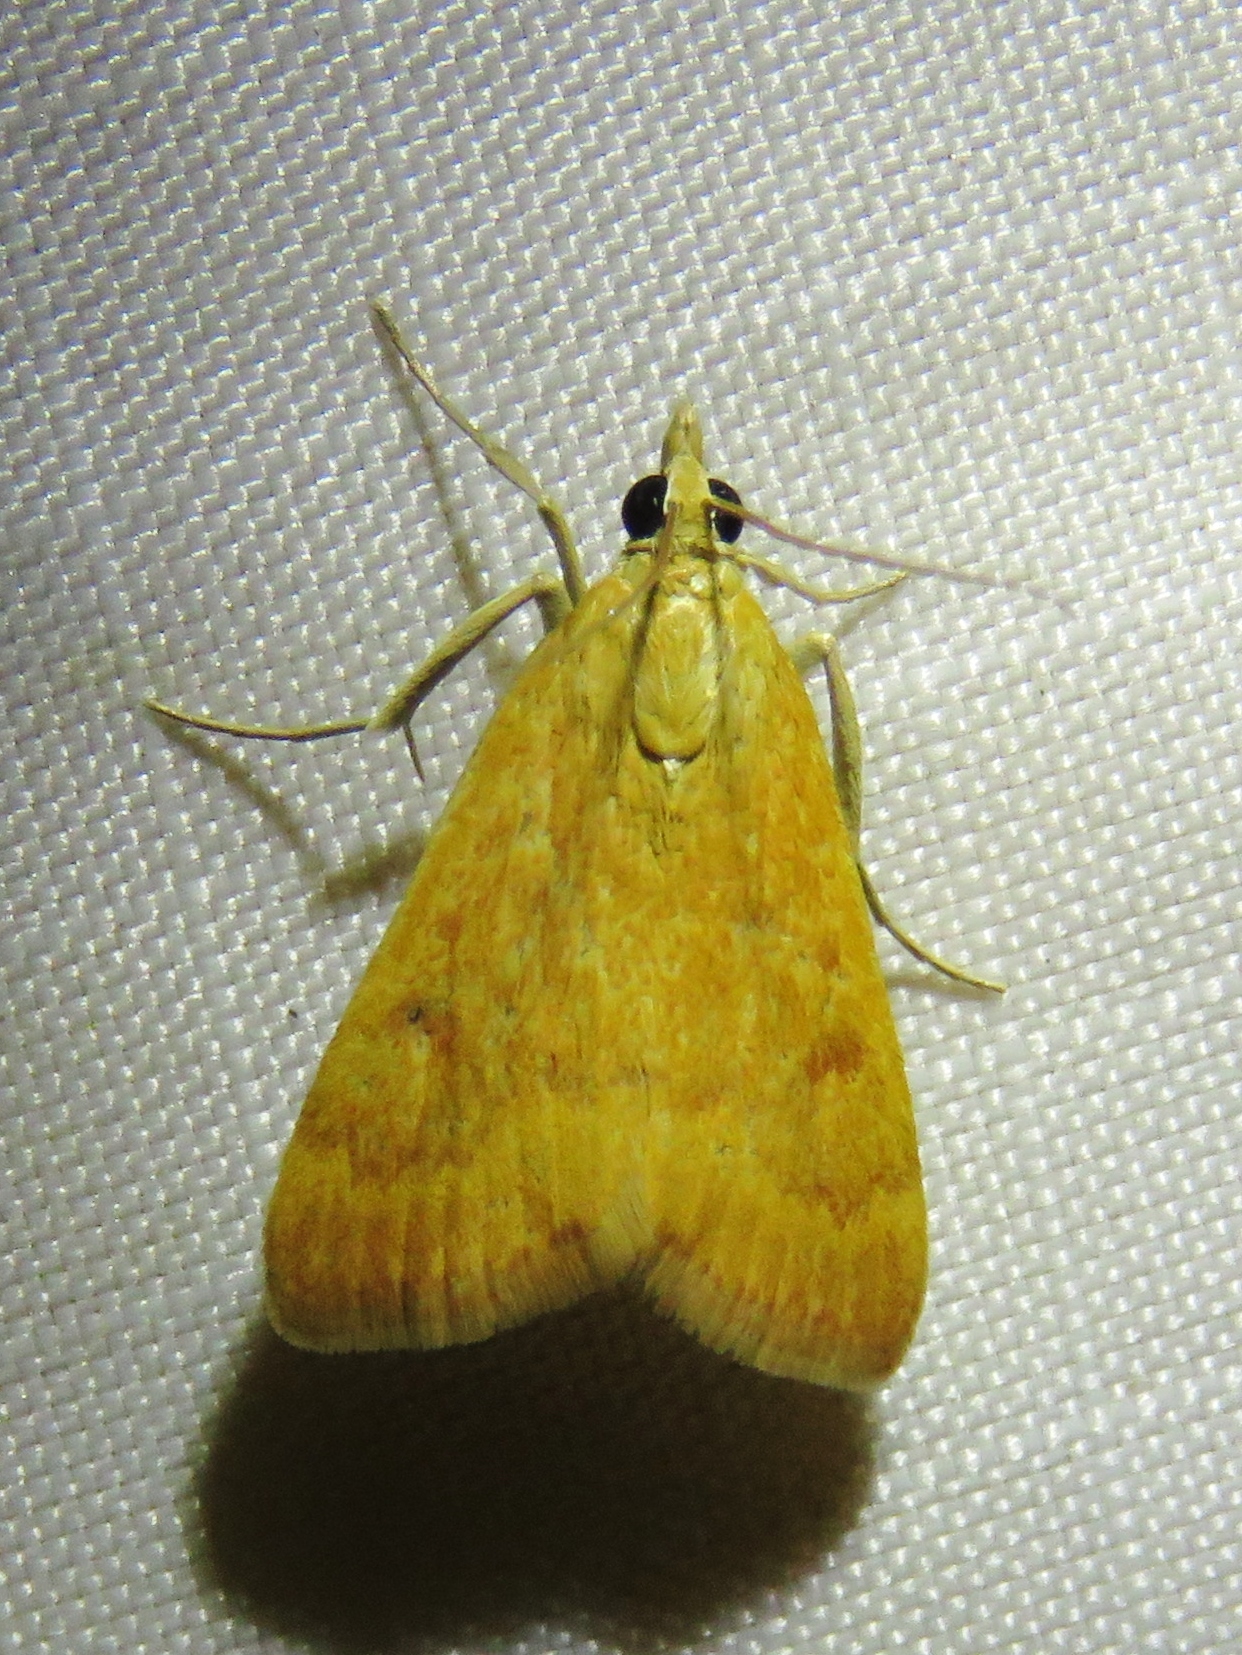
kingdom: Animalia
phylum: Arthropoda
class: Insecta
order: Lepidoptera
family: Crambidae
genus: Achyra
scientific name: Achyra rantalis
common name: Garden webworm
